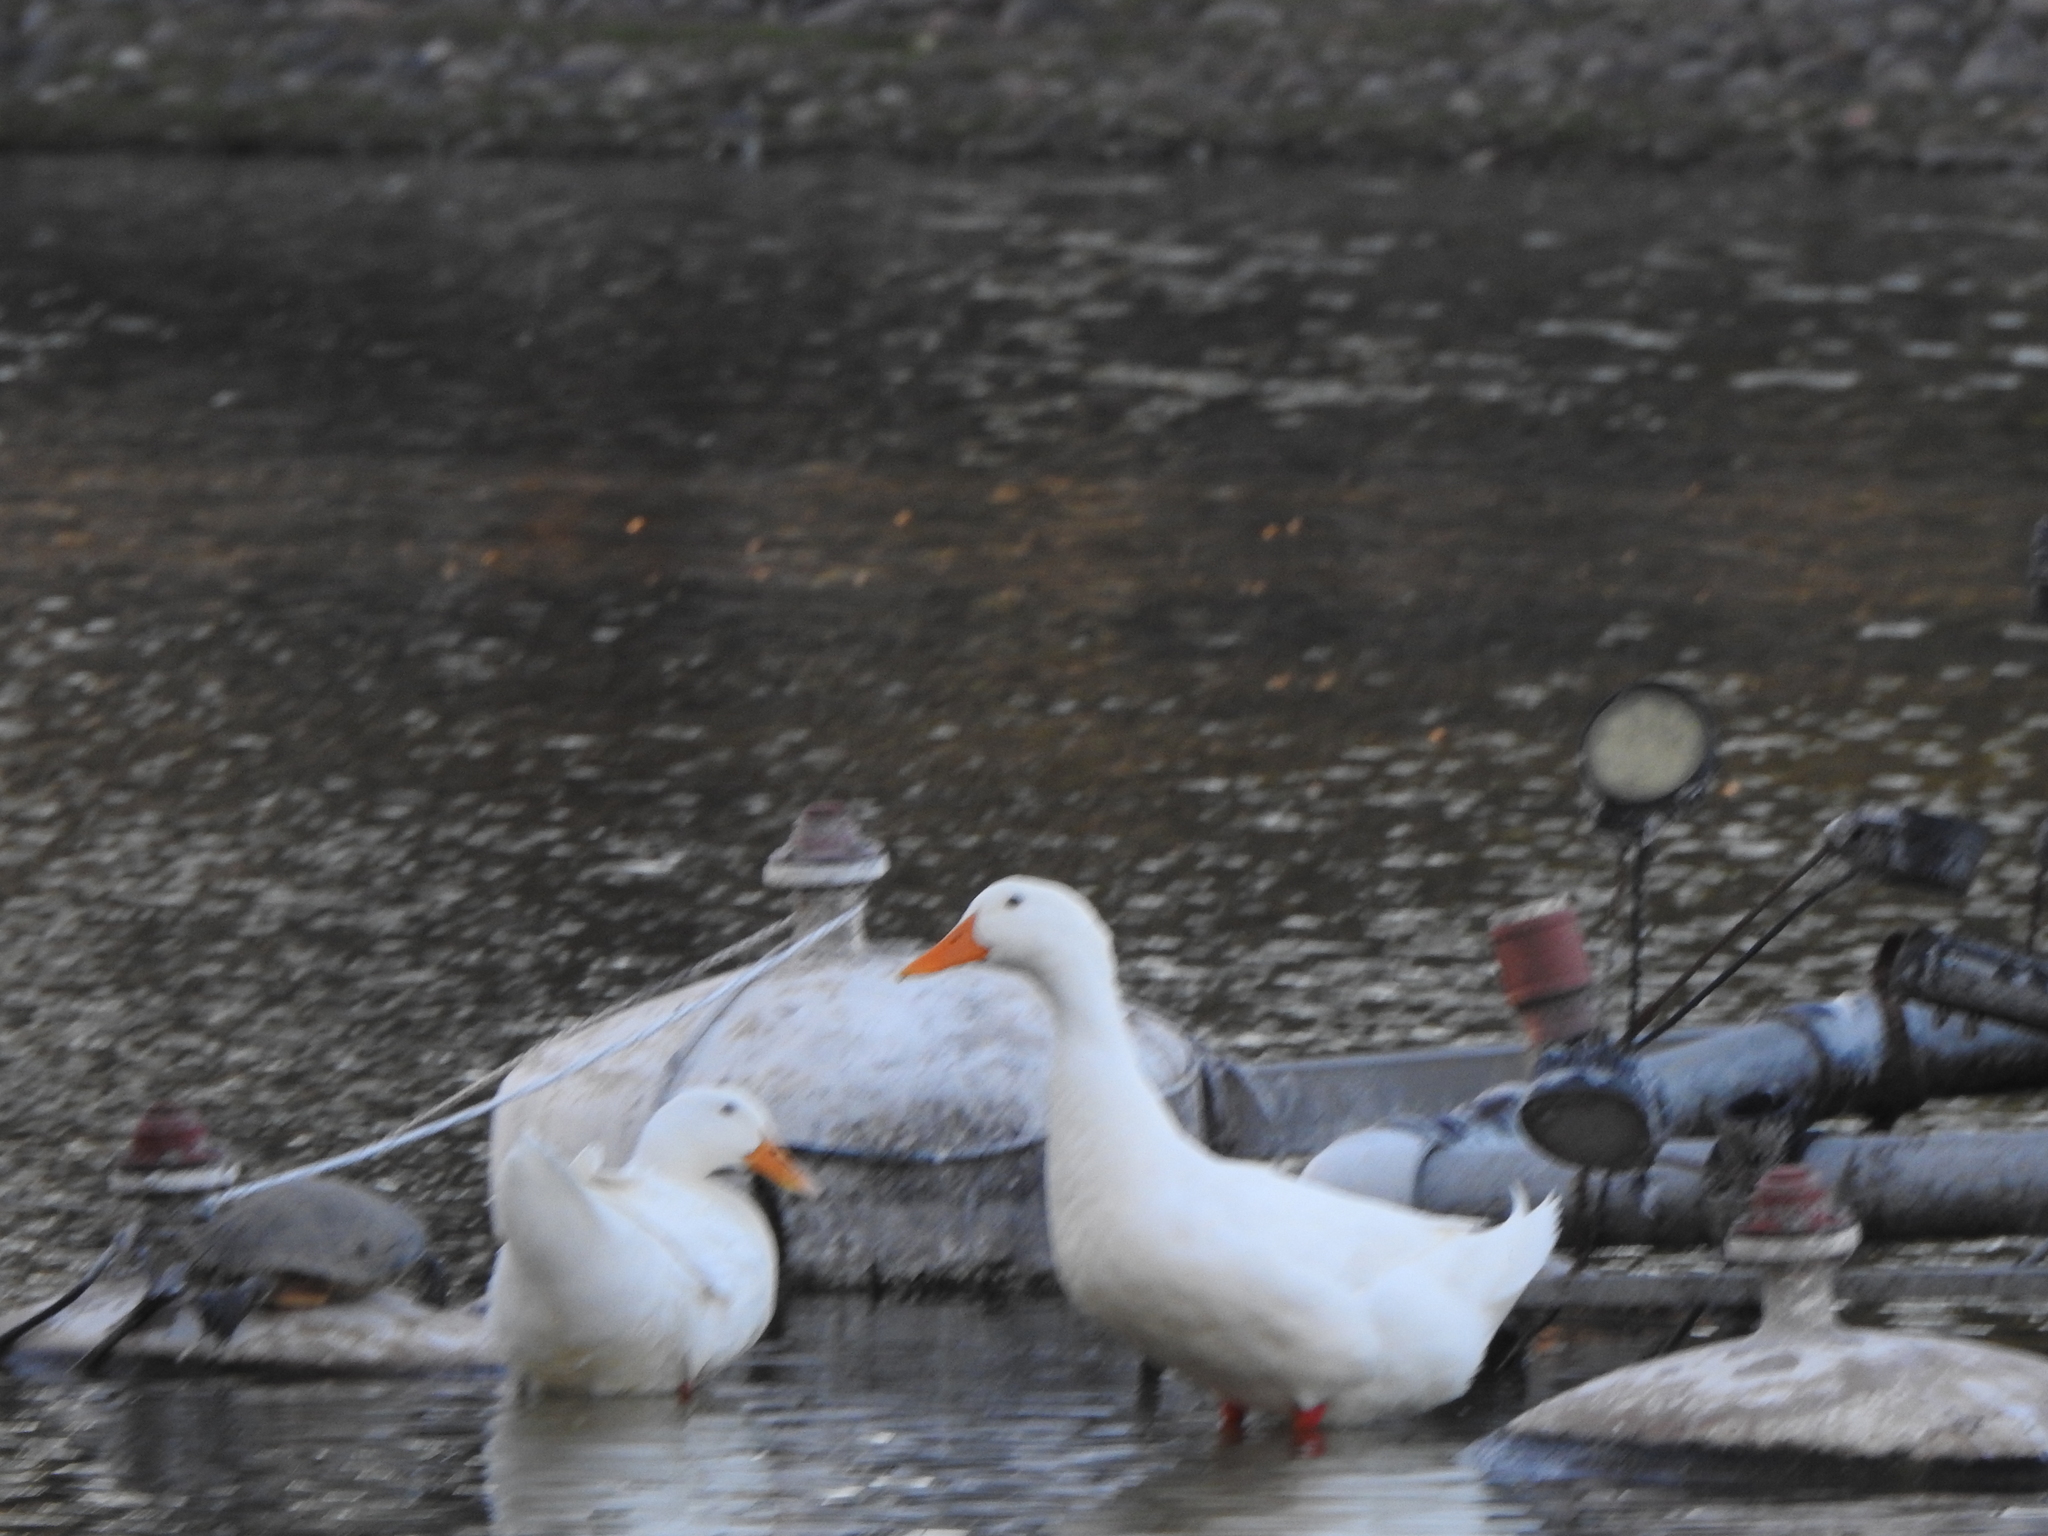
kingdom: Animalia
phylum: Chordata
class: Aves
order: Anseriformes
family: Anatidae
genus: Anas
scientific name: Anas platyrhynchos
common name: Mallard
